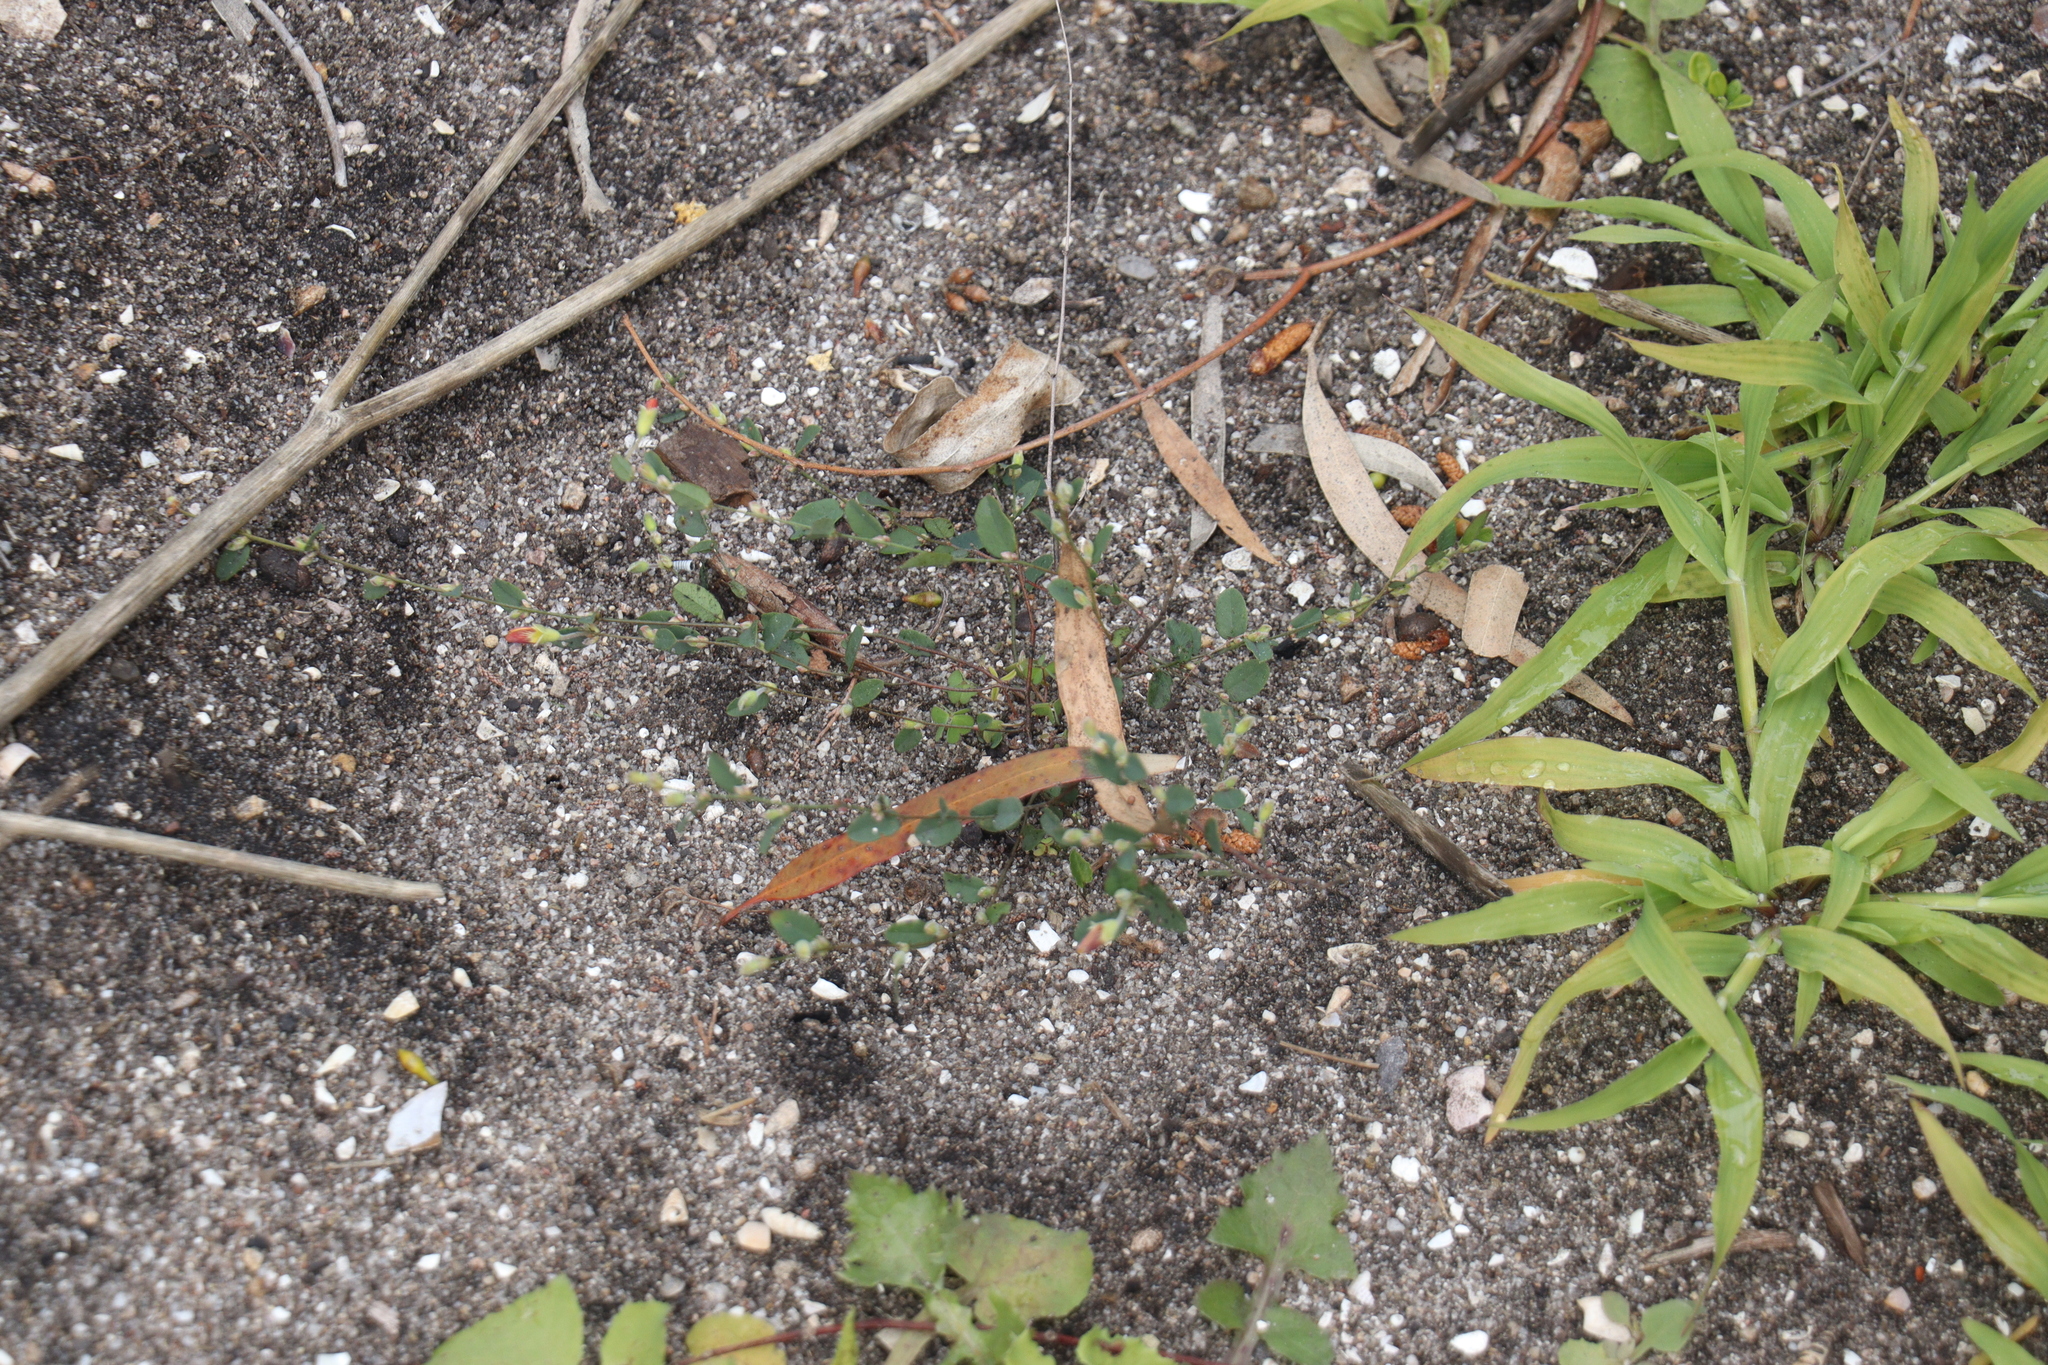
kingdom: Plantae
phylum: Tracheophyta
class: Magnoliopsida
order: Fabales
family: Fabaceae
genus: Bossiaea
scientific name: Bossiaea prostrata
